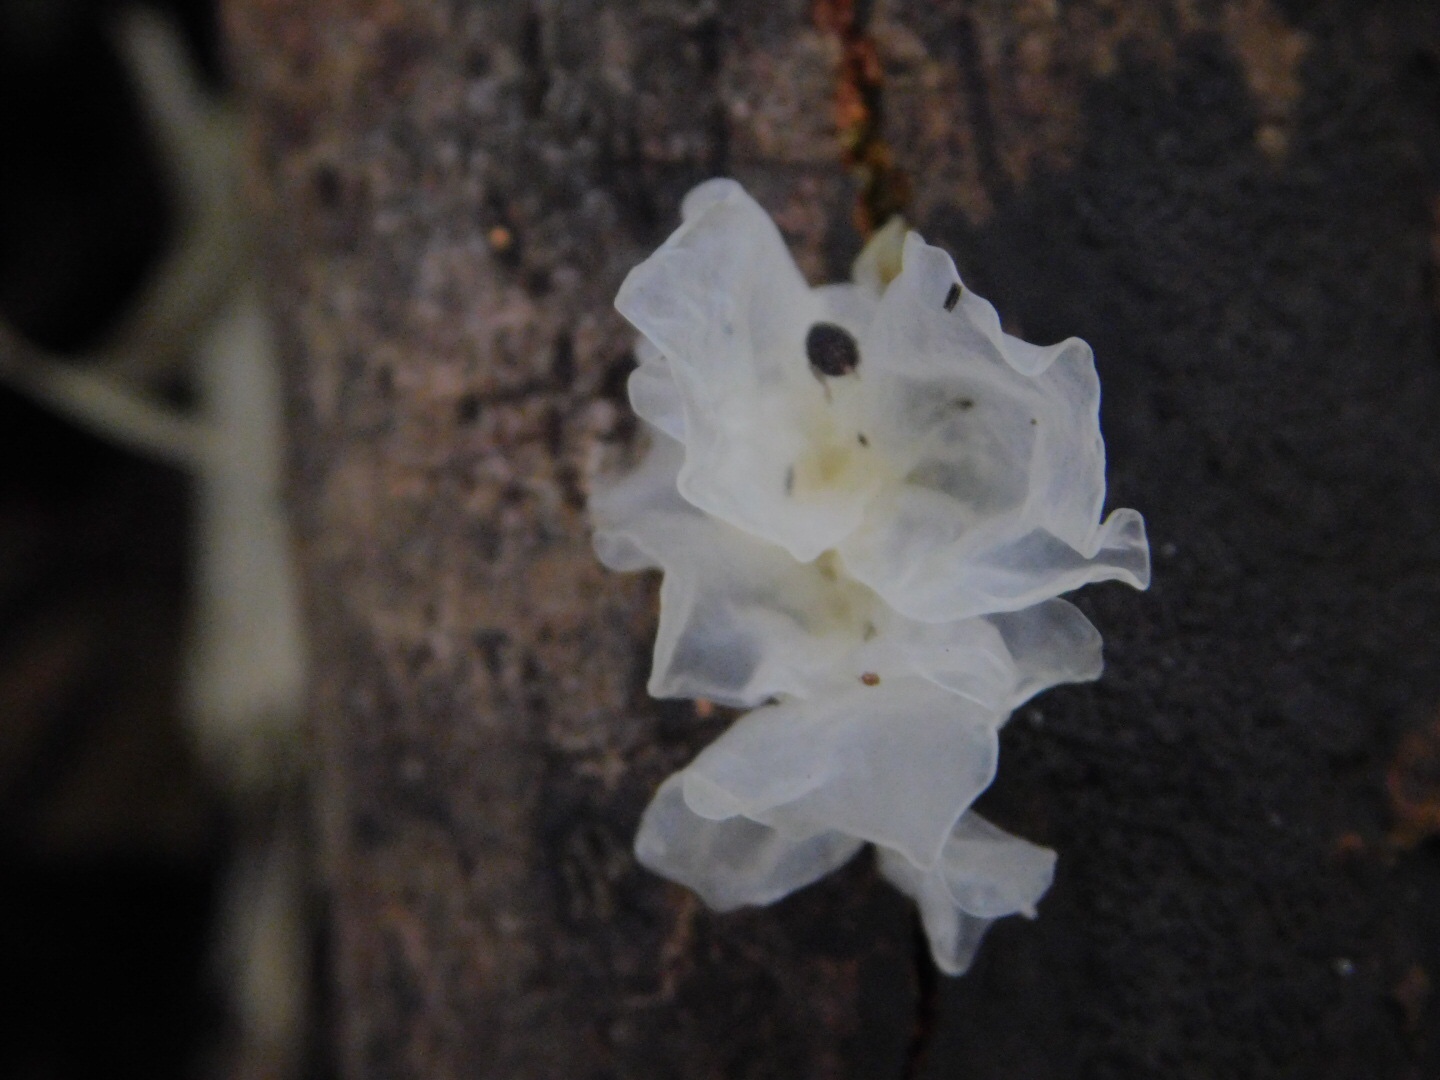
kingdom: Fungi
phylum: Basidiomycota
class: Tremellomycetes
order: Tremellales
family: Tremellaceae
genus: Tremella
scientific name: Tremella fuciformis
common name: Snow fungus
